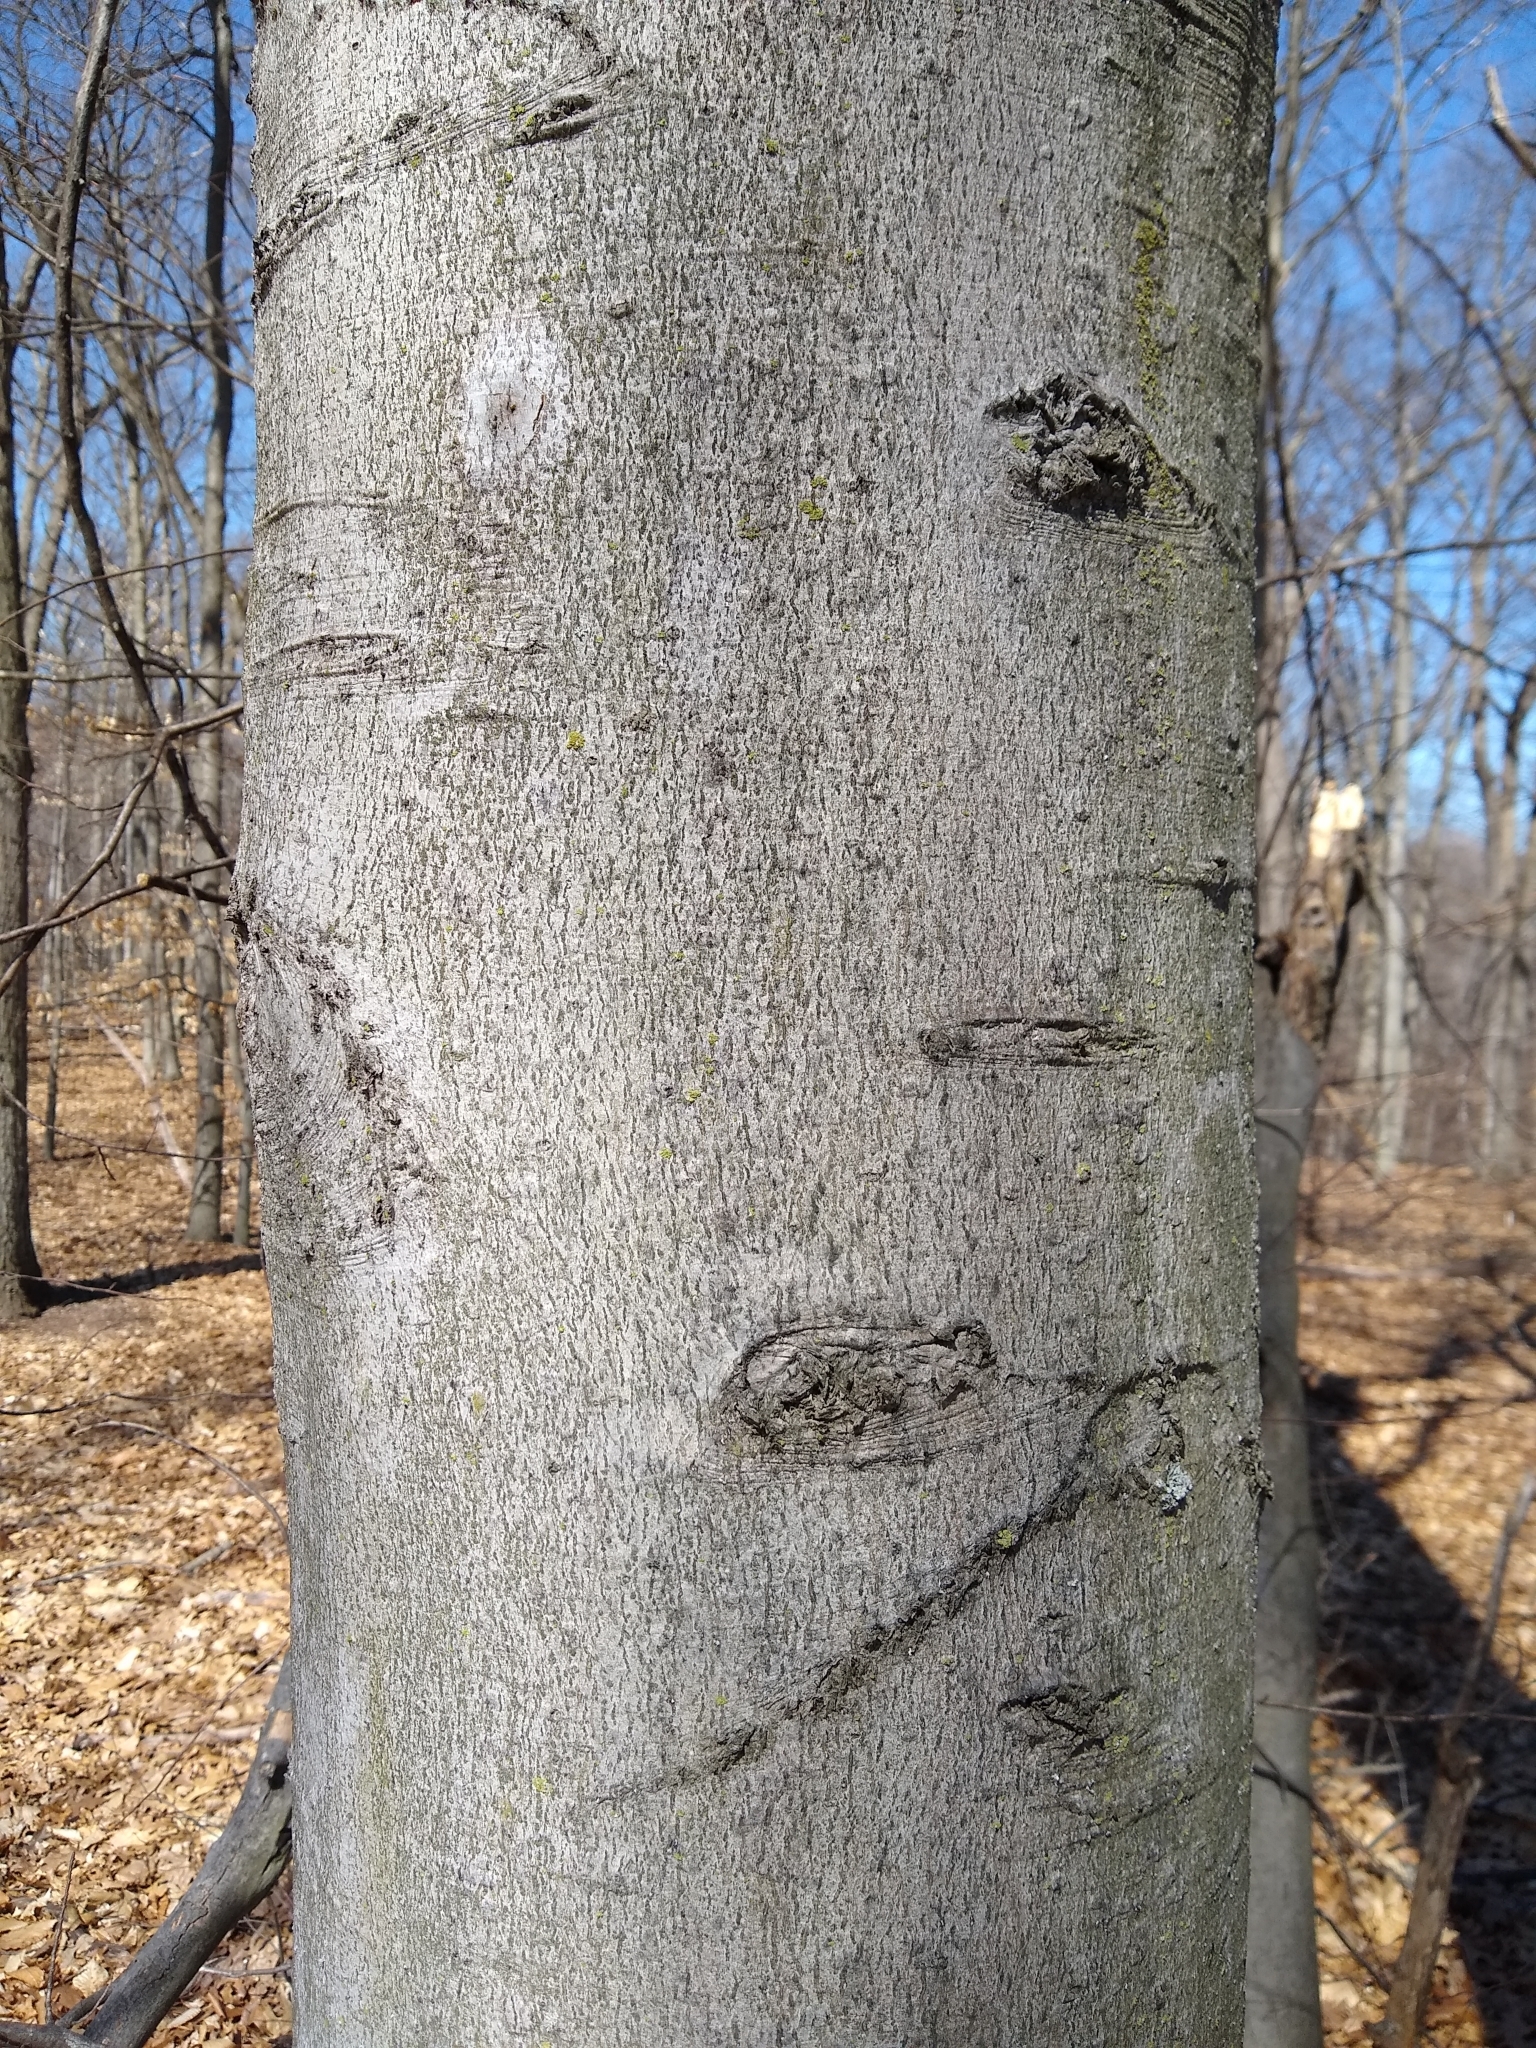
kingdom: Plantae
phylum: Tracheophyta
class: Magnoliopsida
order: Fagales
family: Fagaceae
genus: Fagus
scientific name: Fagus grandifolia
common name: American beech
